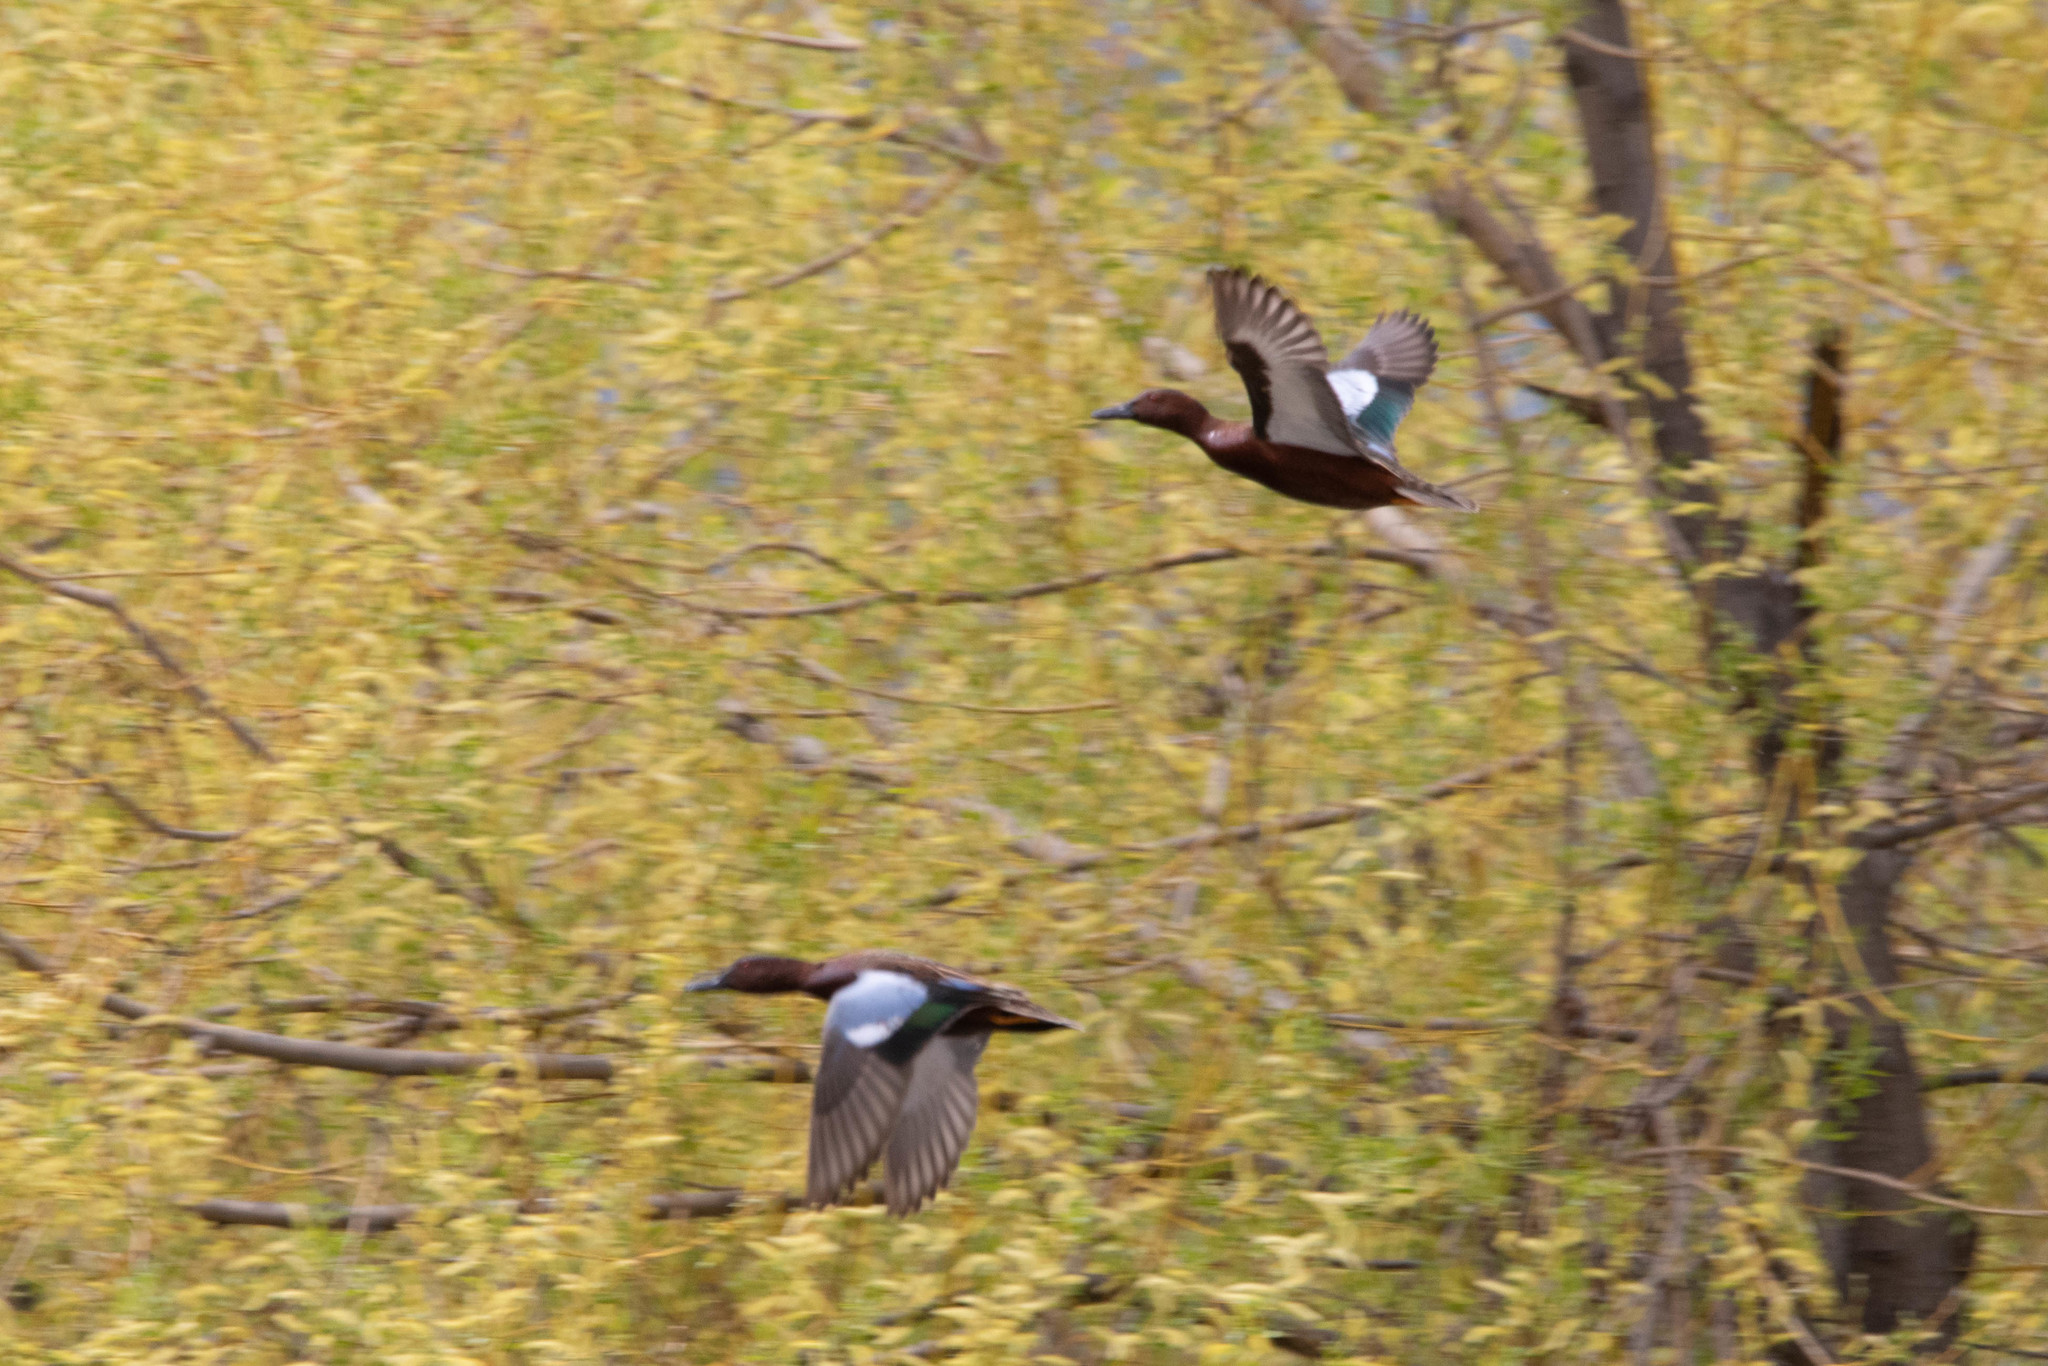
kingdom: Animalia
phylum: Chordata
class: Aves
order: Anseriformes
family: Anatidae
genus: Spatula
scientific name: Spatula cyanoptera
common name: Cinnamon teal
